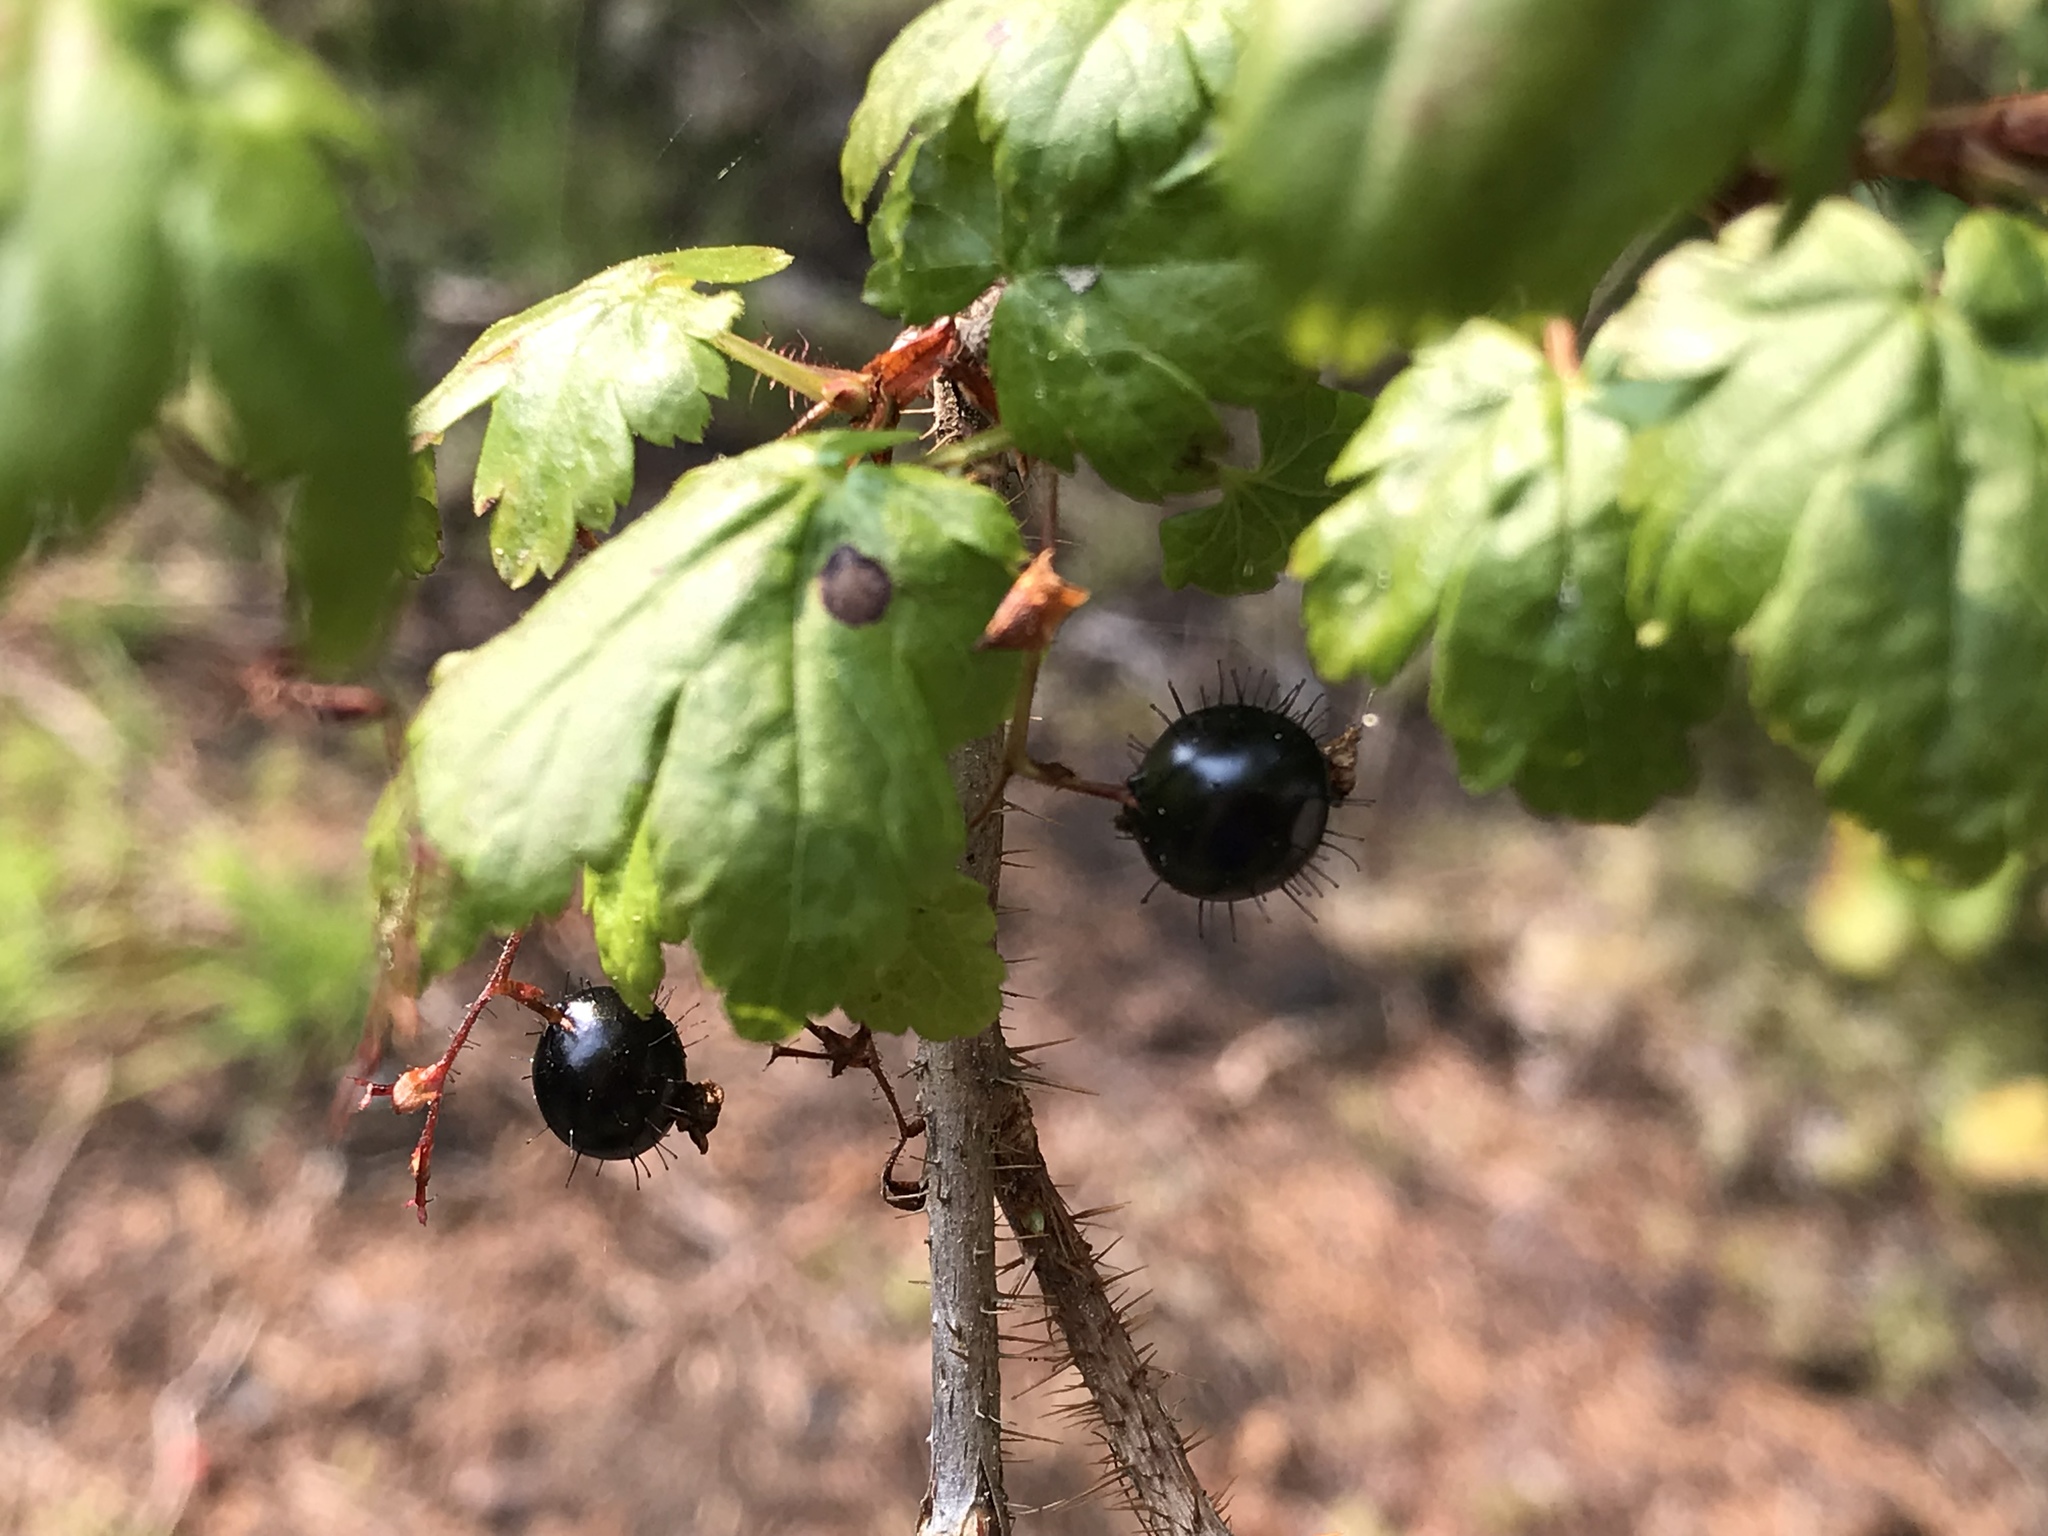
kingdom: Plantae
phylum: Tracheophyta
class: Magnoliopsida
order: Saxifragales
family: Grossulariaceae
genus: Ribes
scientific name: Ribes lacustre
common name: Black gooseberry
